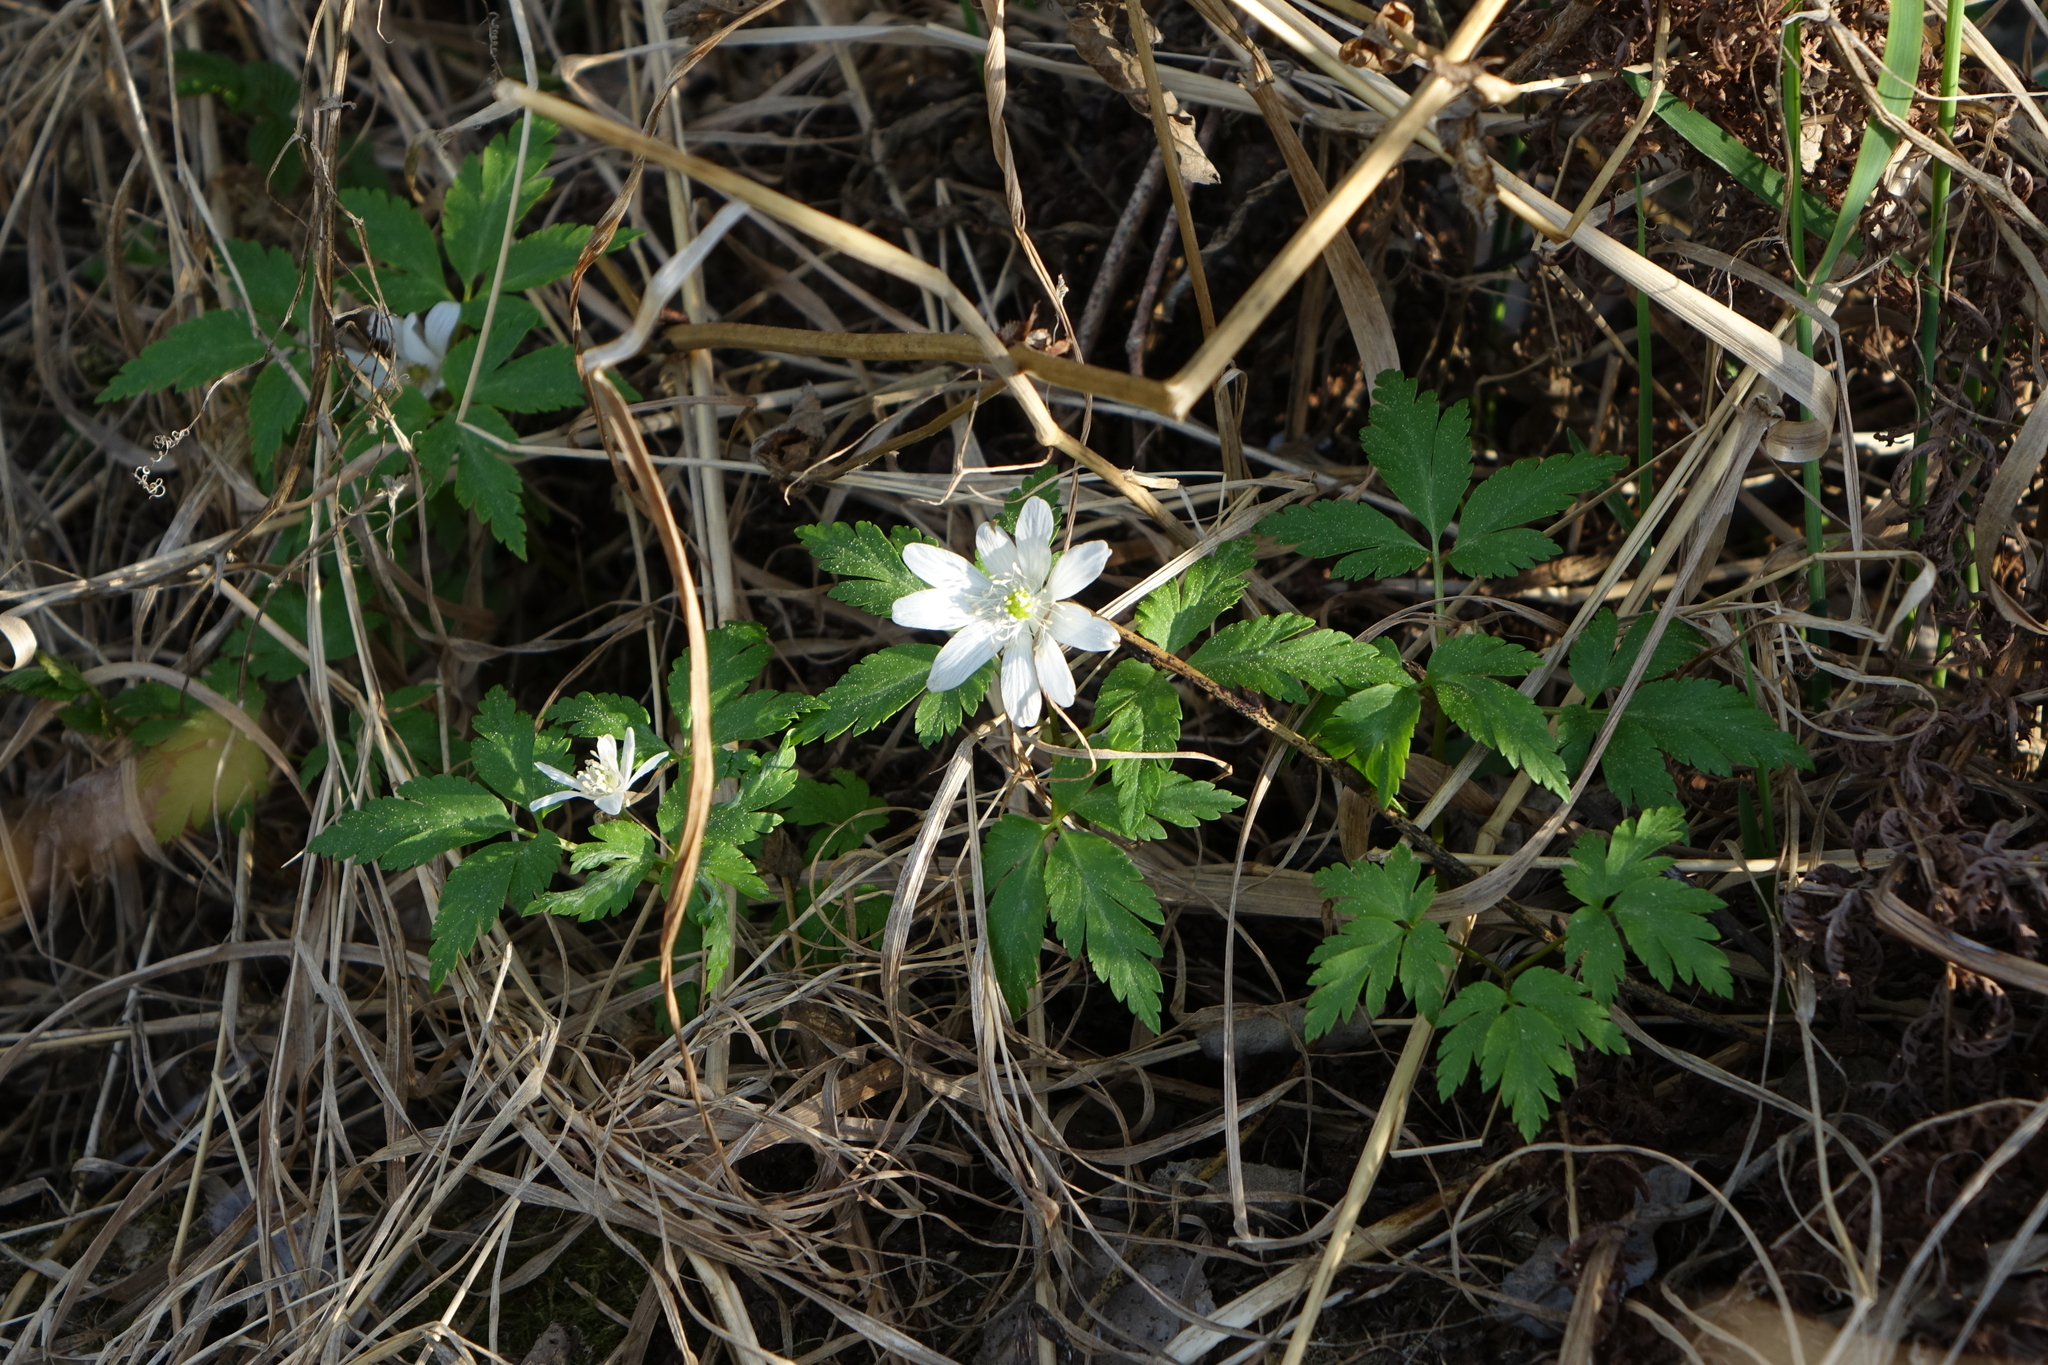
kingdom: Plantae
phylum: Tracheophyta
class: Magnoliopsida
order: Ranunculales
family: Ranunculaceae
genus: Anemone
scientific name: Anemone altaica
